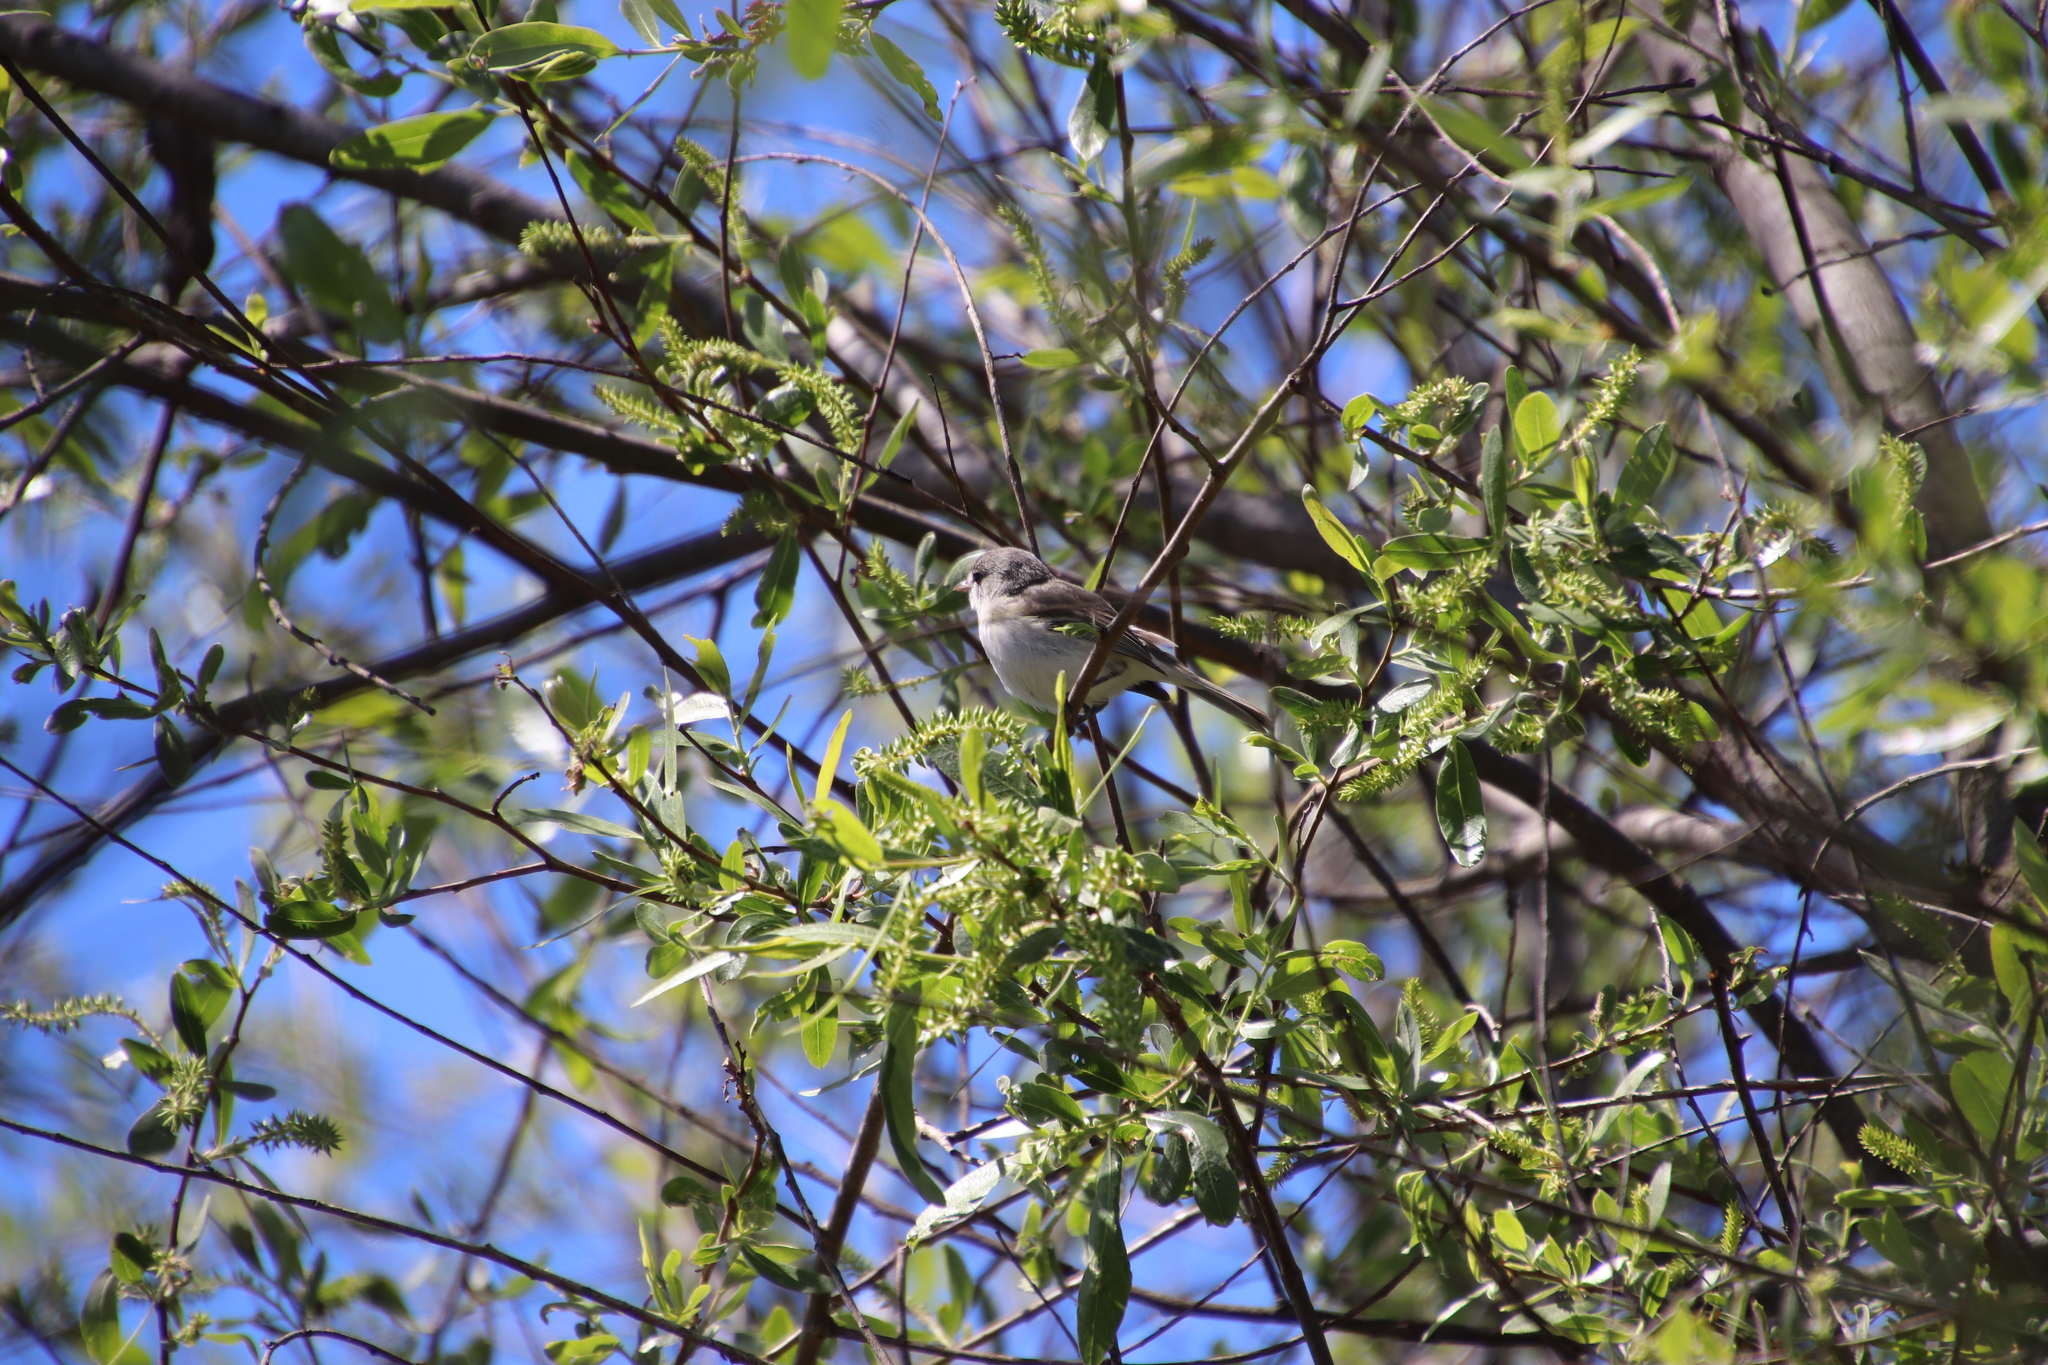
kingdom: Animalia
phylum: Chordata
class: Aves
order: Passeriformes
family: Vireonidae
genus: Vireo
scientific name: Vireo bellii
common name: Bell's vireo
